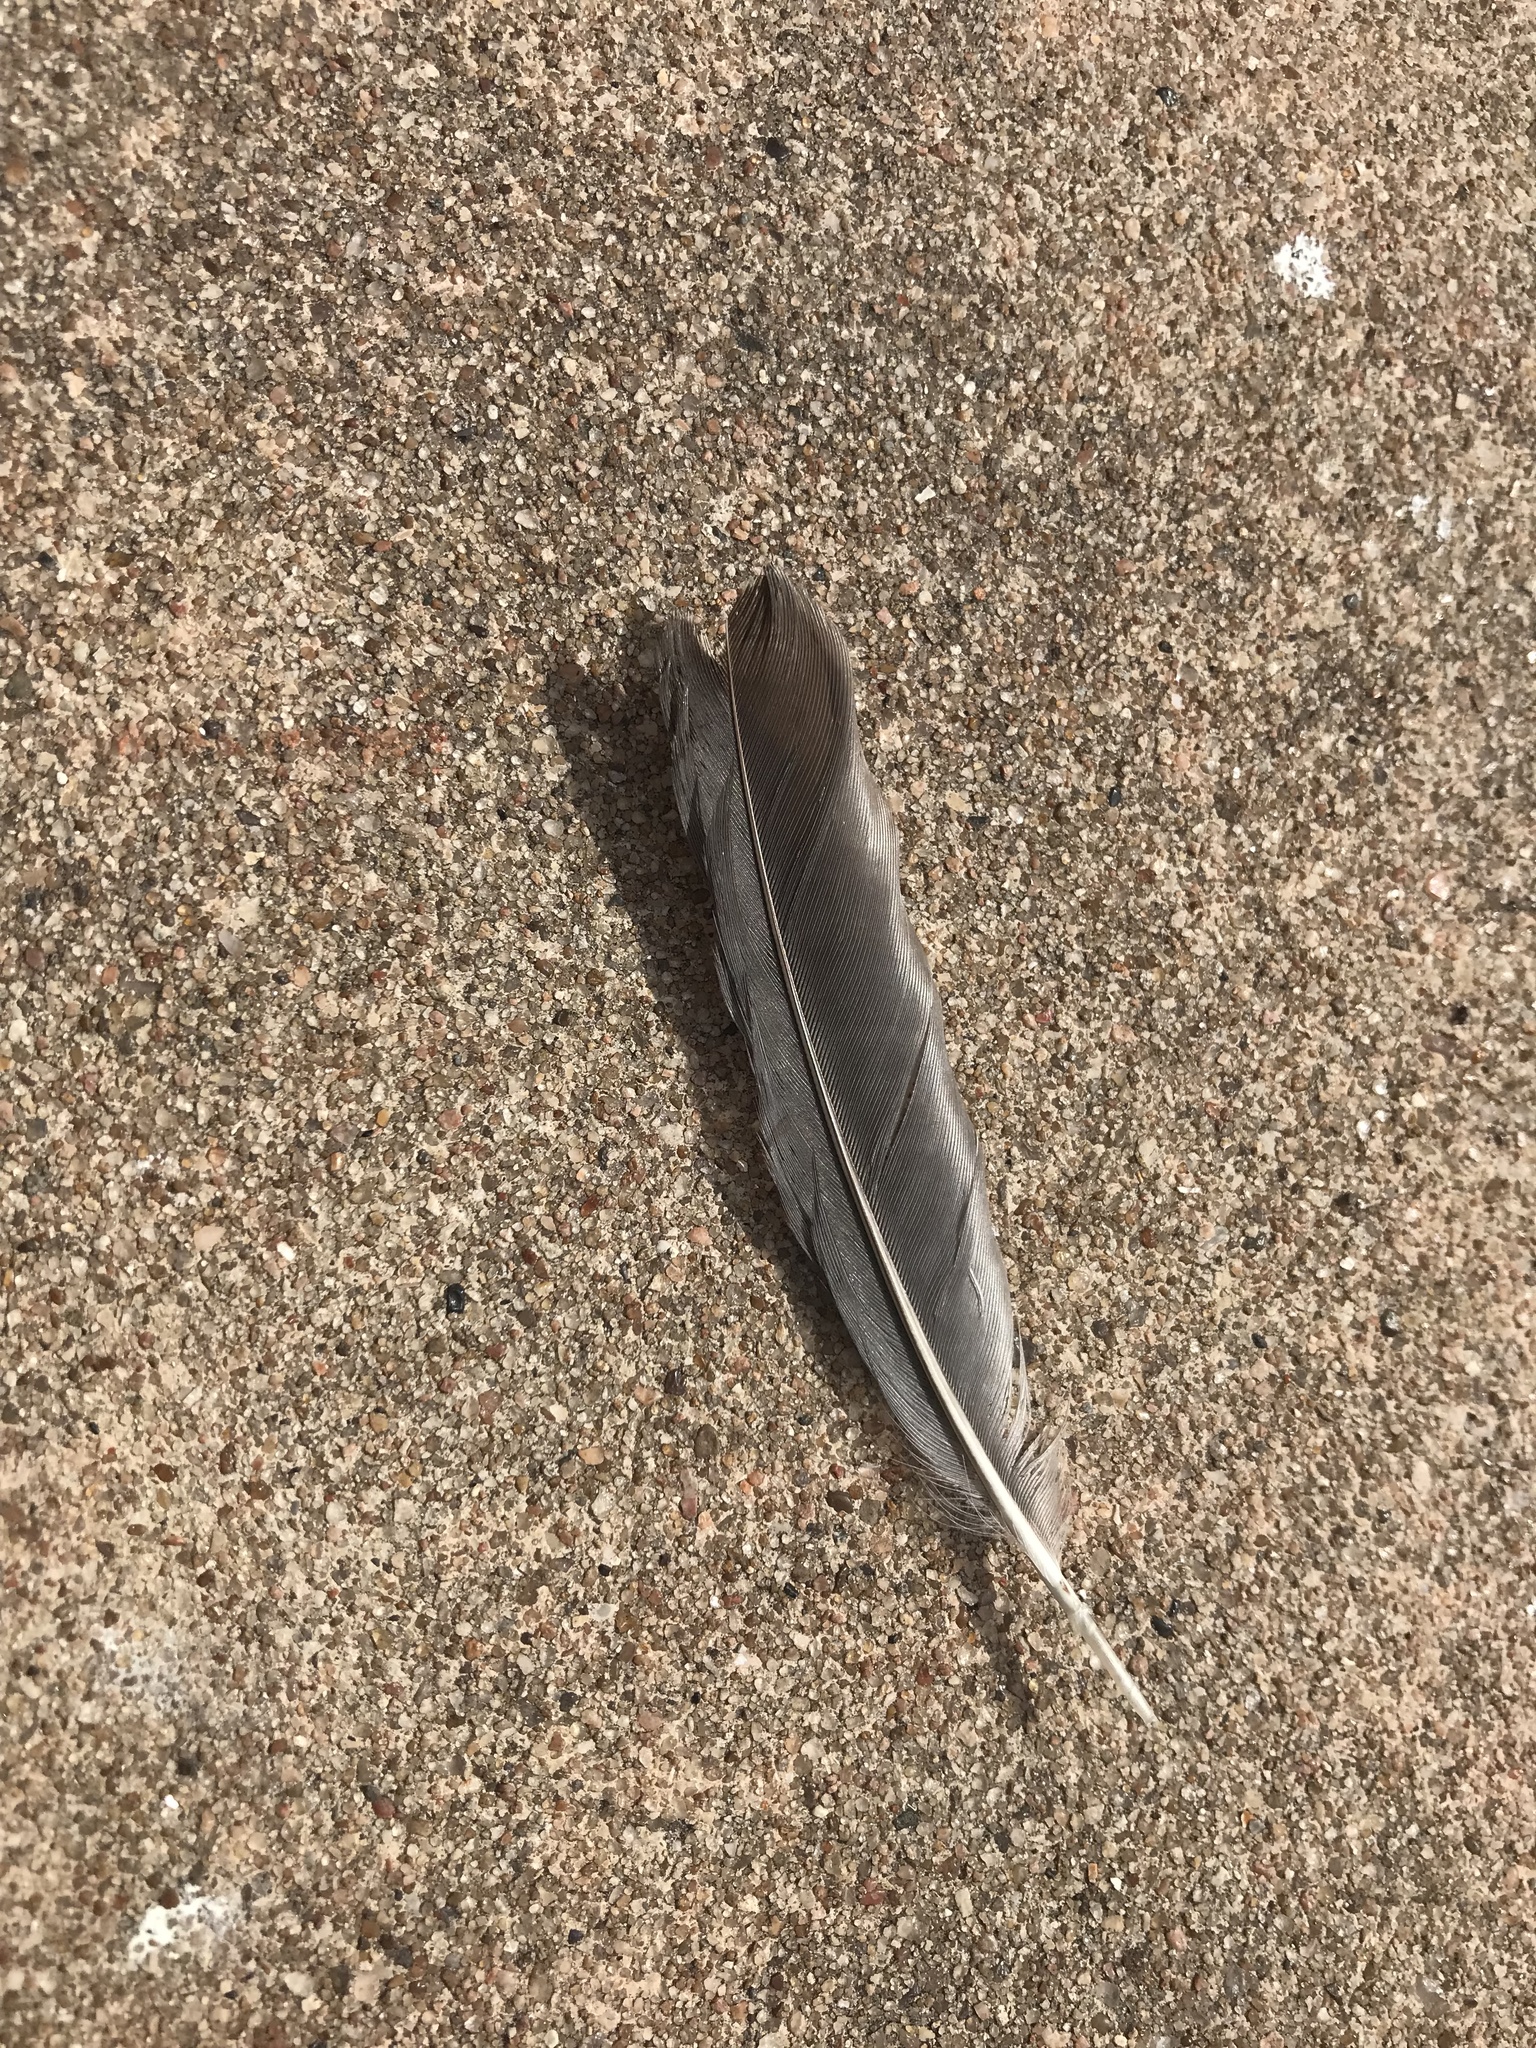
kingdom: Animalia
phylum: Chordata
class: Aves
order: Passeriformes
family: Corvidae
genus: Cyanocitta
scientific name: Cyanocitta cristata
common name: Blue jay
